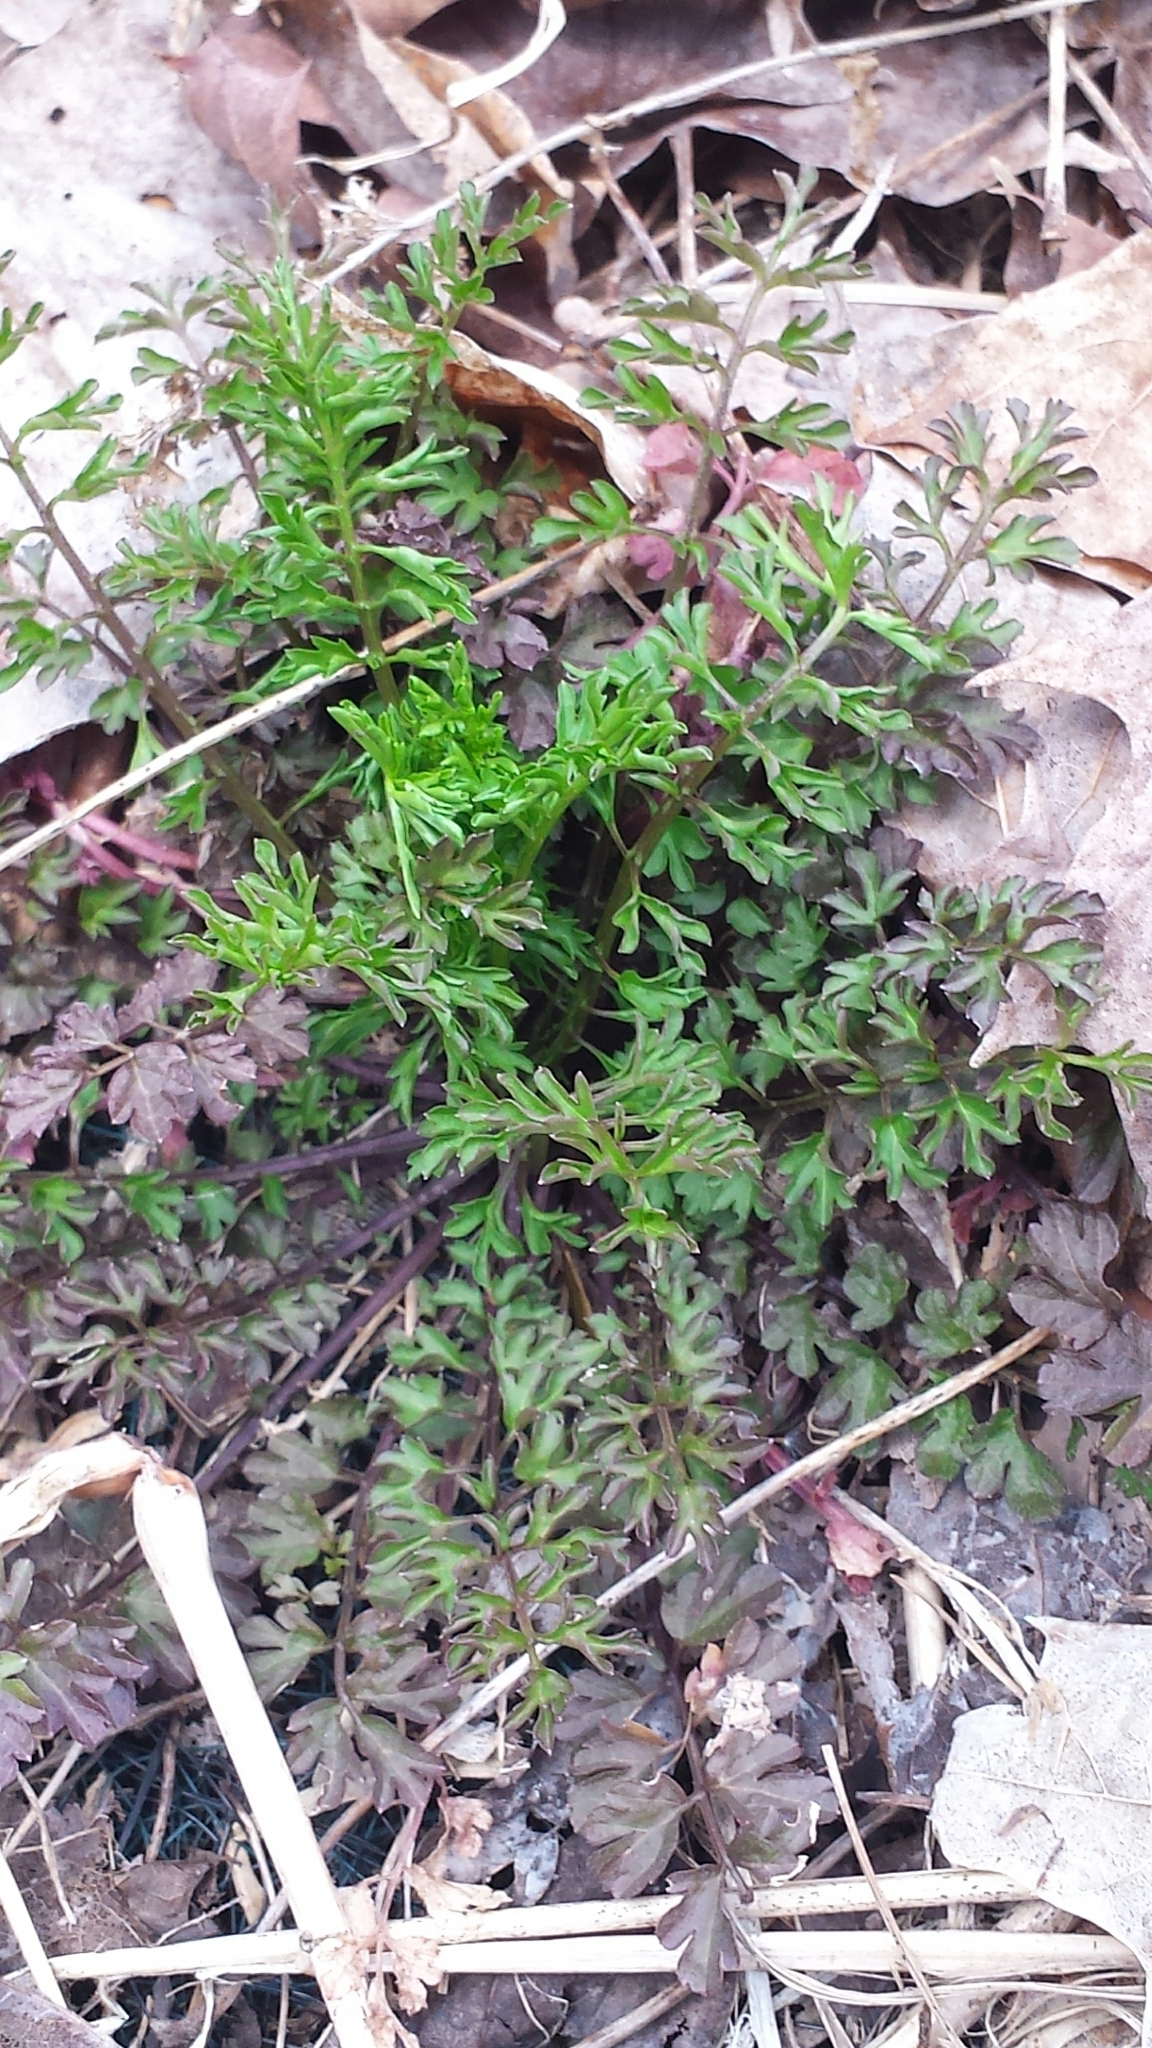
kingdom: Plantae
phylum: Tracheophyta
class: Magnoliopsida
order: Brassicales
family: Brassicaceae
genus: Cardamine
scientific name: Cardamine impatiens
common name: Narrow-leaved bitter-cress
